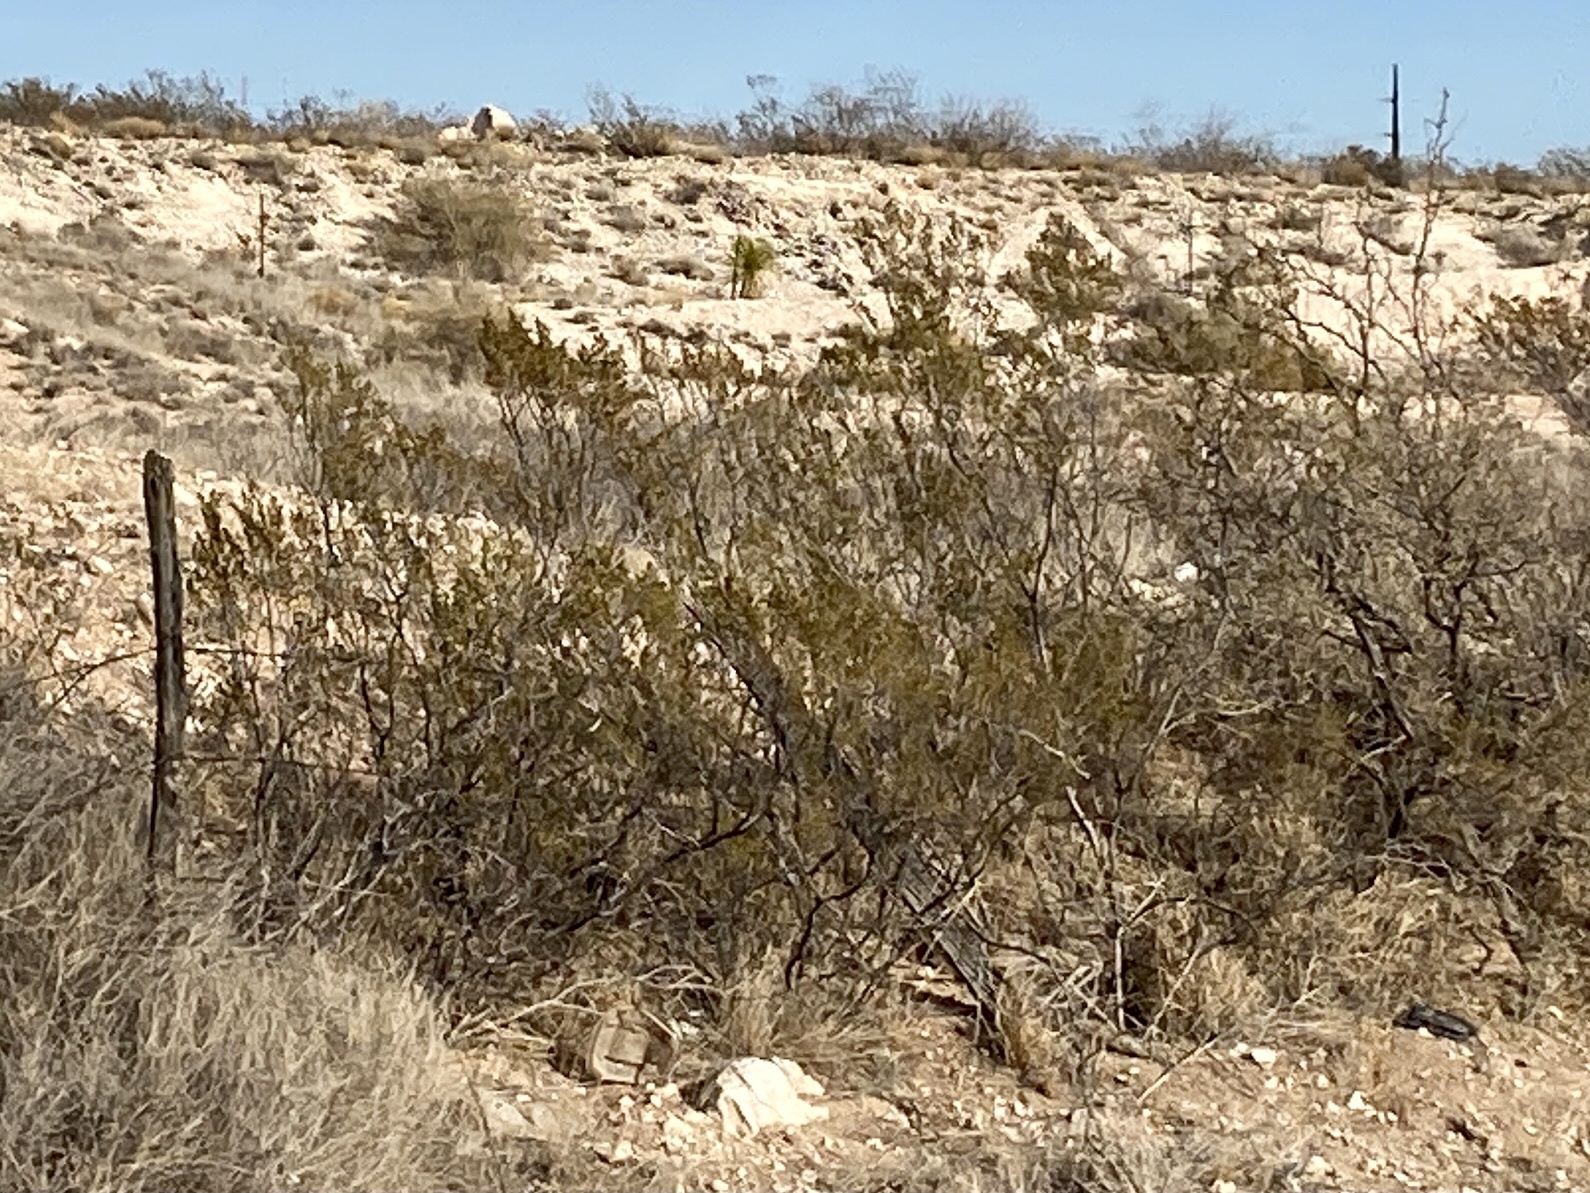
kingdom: Plantae
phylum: Tracheophyta
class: Magnoliopsida
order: Zygophyllales
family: Zygophyllaceae
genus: Larrea
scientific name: Larrea tridentata
